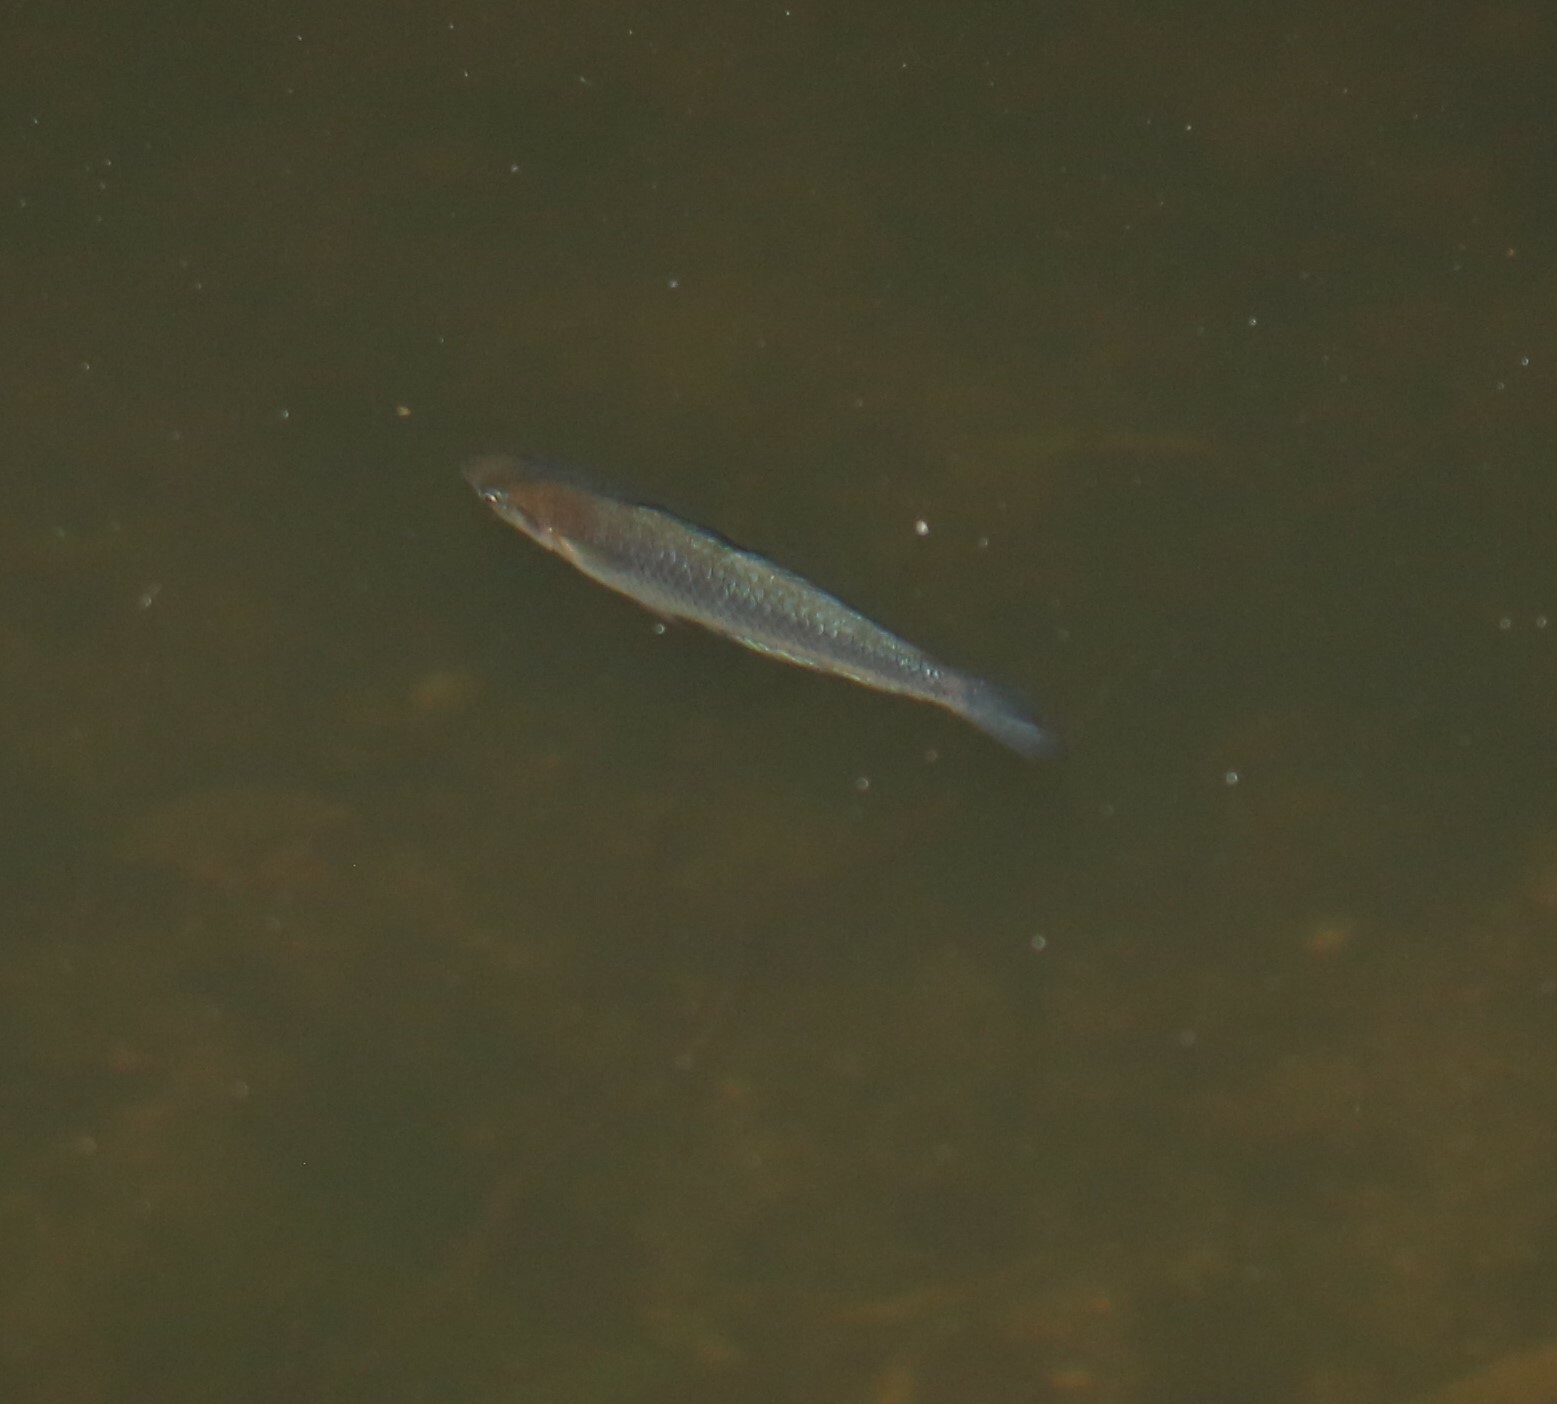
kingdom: Animalia
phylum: Chordata
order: Atheriniformes
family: Melanotaeniidae
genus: Melanotaenia
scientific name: Melanotaenia duboulayi
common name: Crimson-spotted rainbowfish
